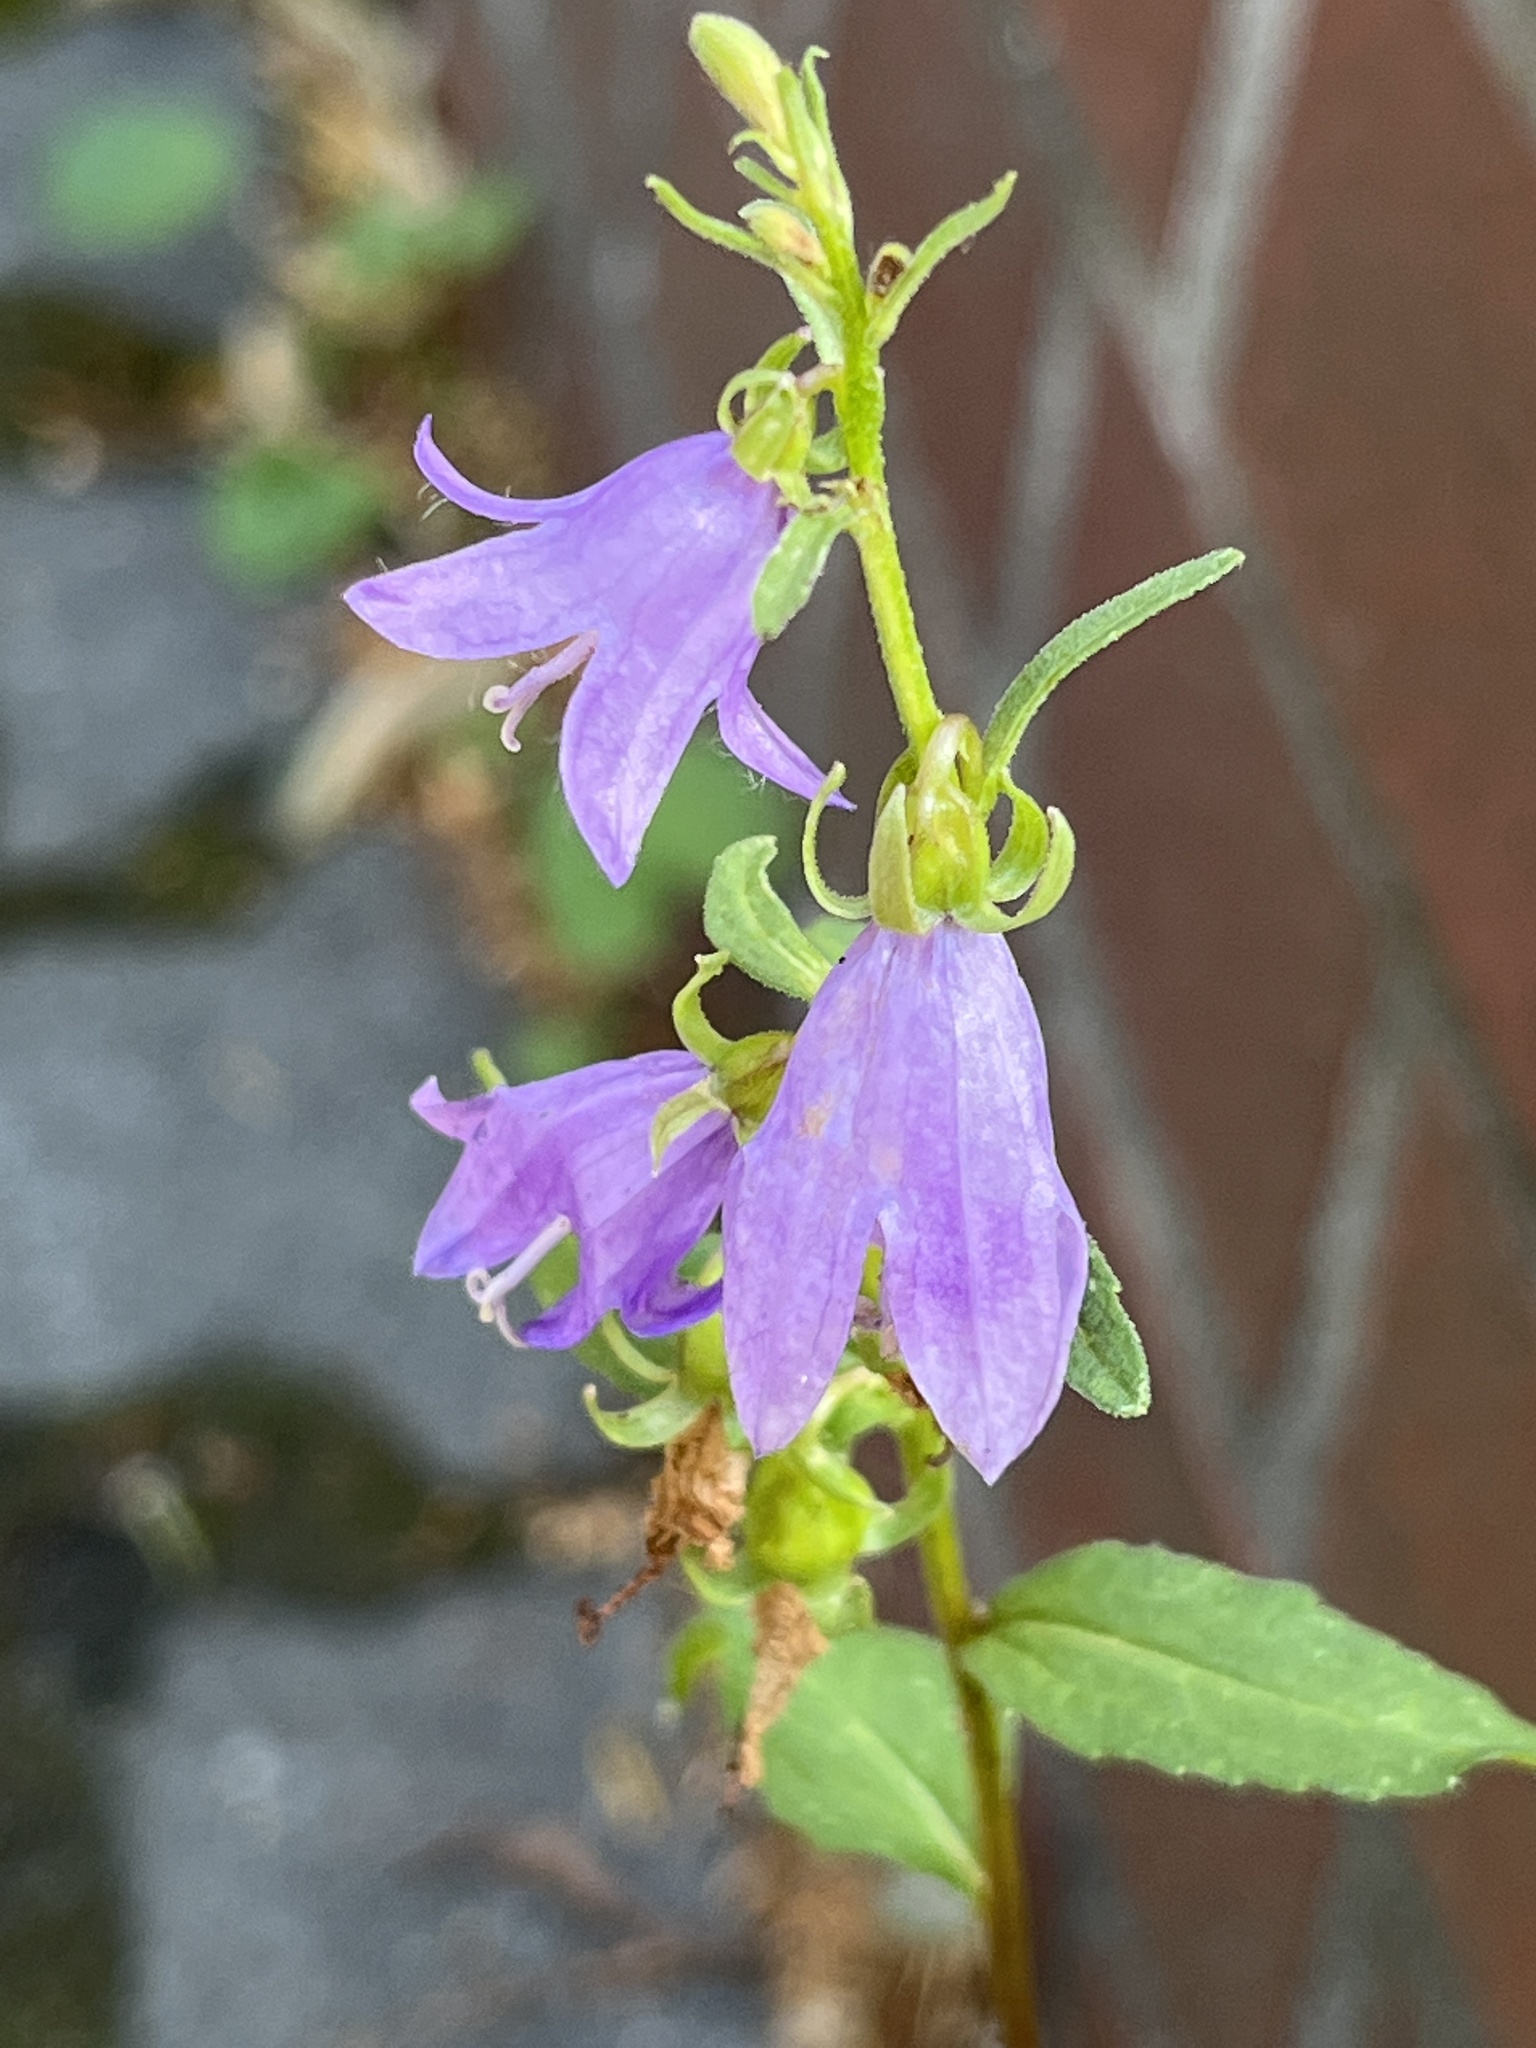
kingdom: Plantae
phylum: Tracheophyta
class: Magnoliopsida
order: Asterales
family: Campanulaceae
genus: Campanula
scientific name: Campanula rapunculoides
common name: Creeping bellflower
